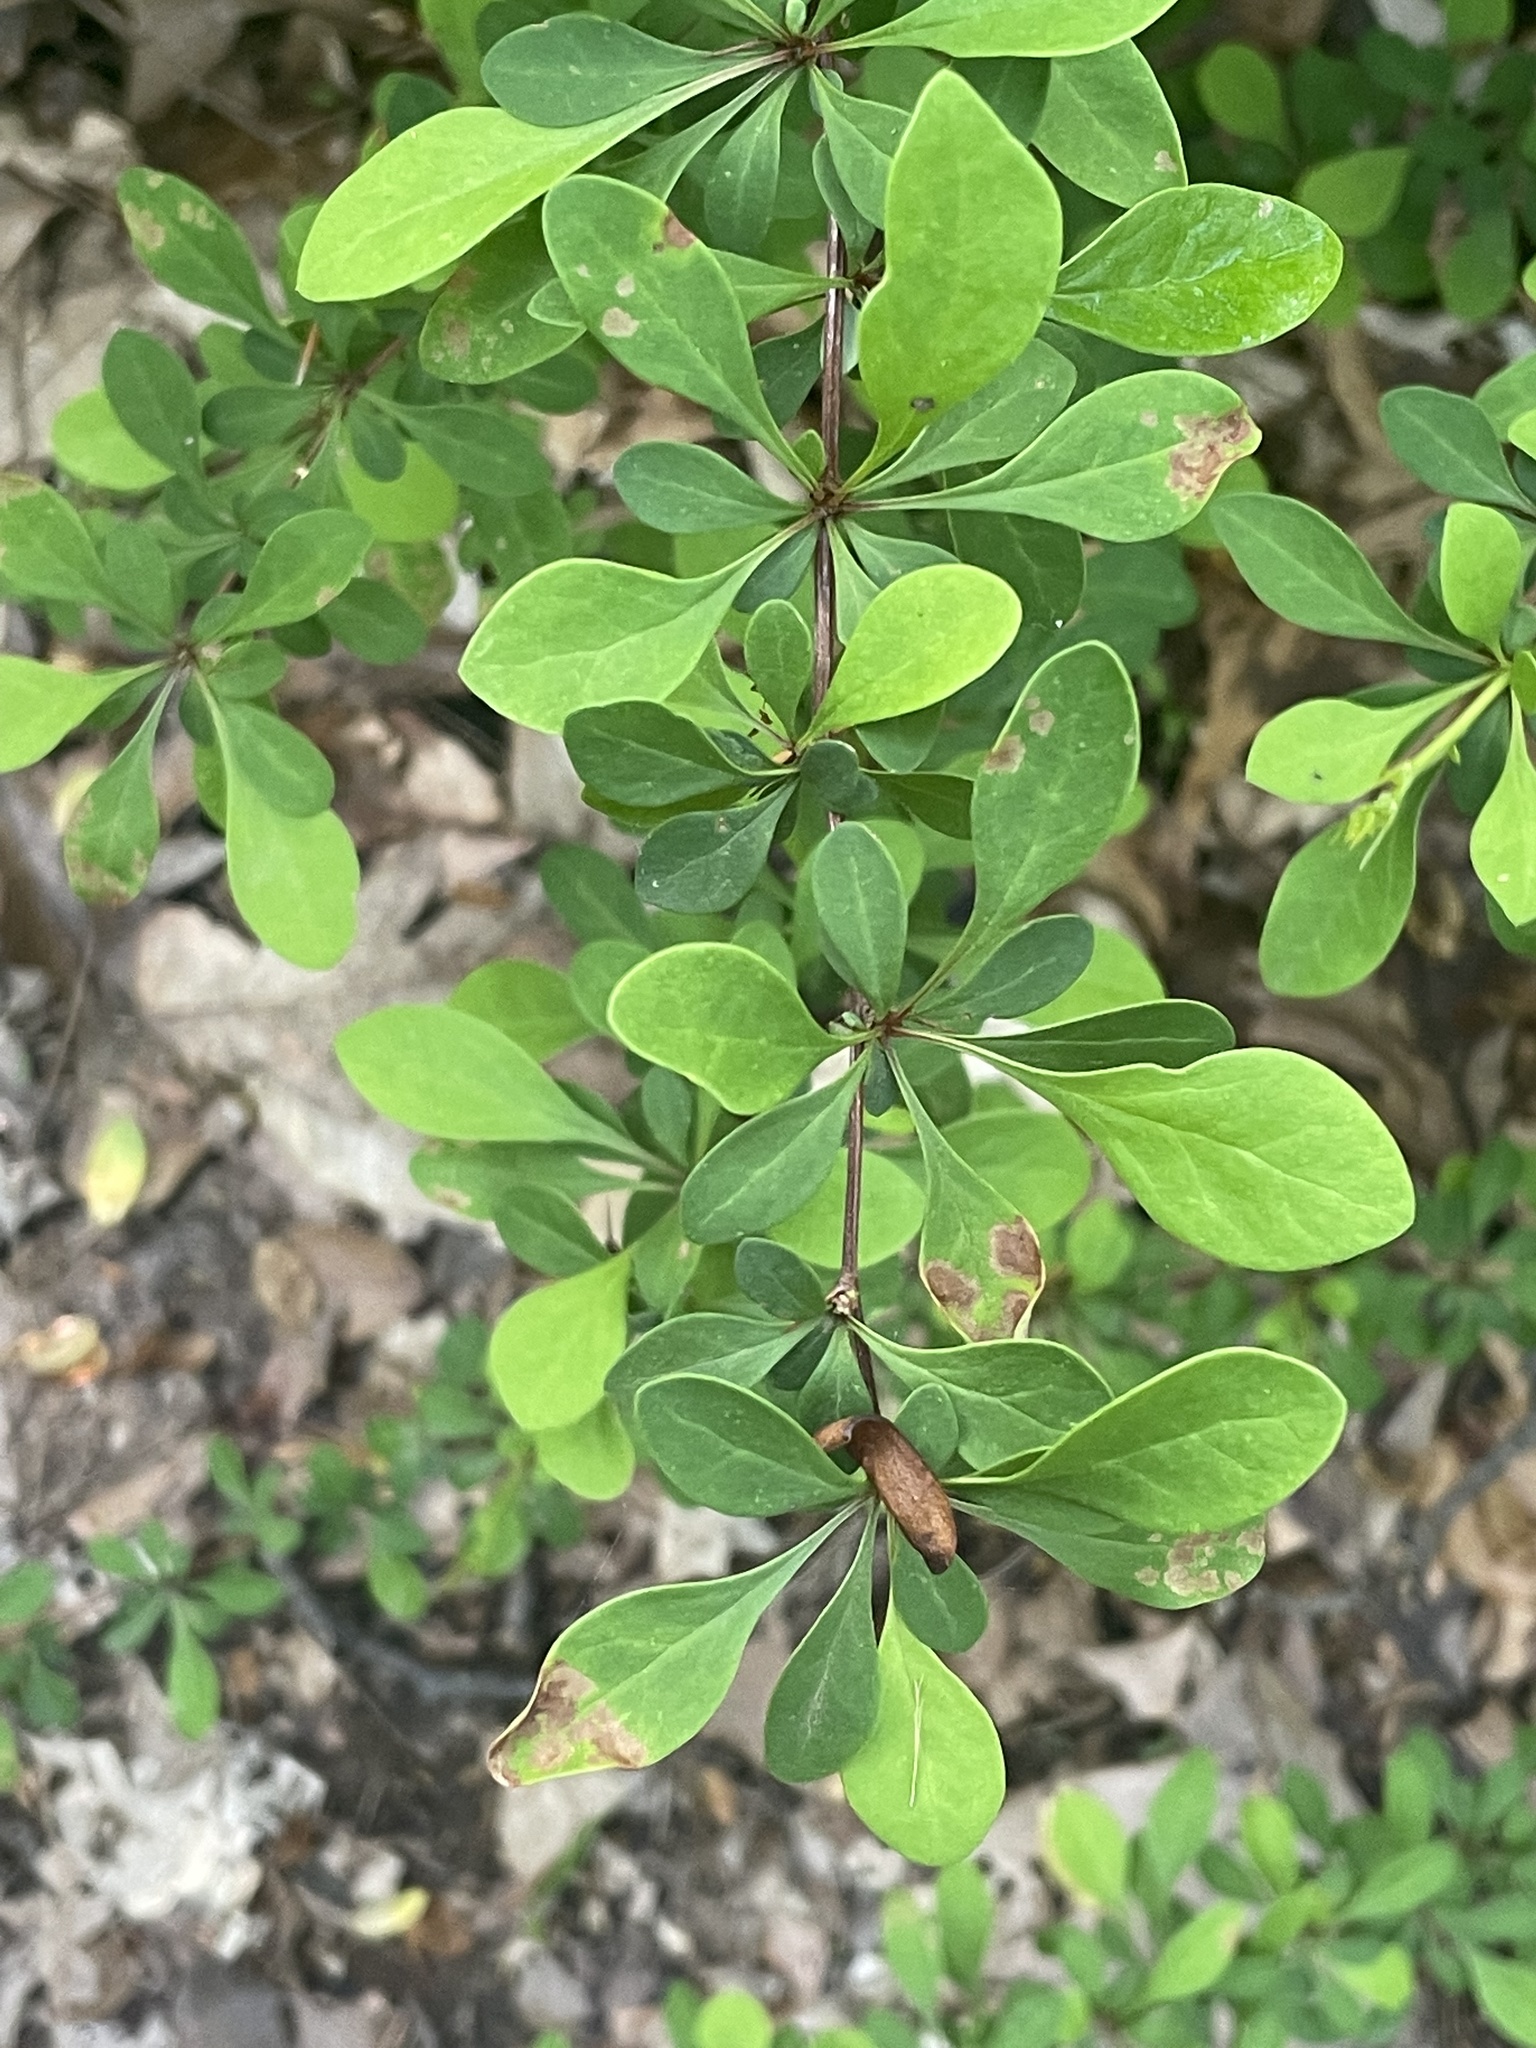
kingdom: Plantae
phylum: Tracheophyta
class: Magnoliopsida
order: Ranunculales
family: Berberidaceae
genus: Berberis
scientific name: Berberis thunbergii
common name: Japanese barberry
